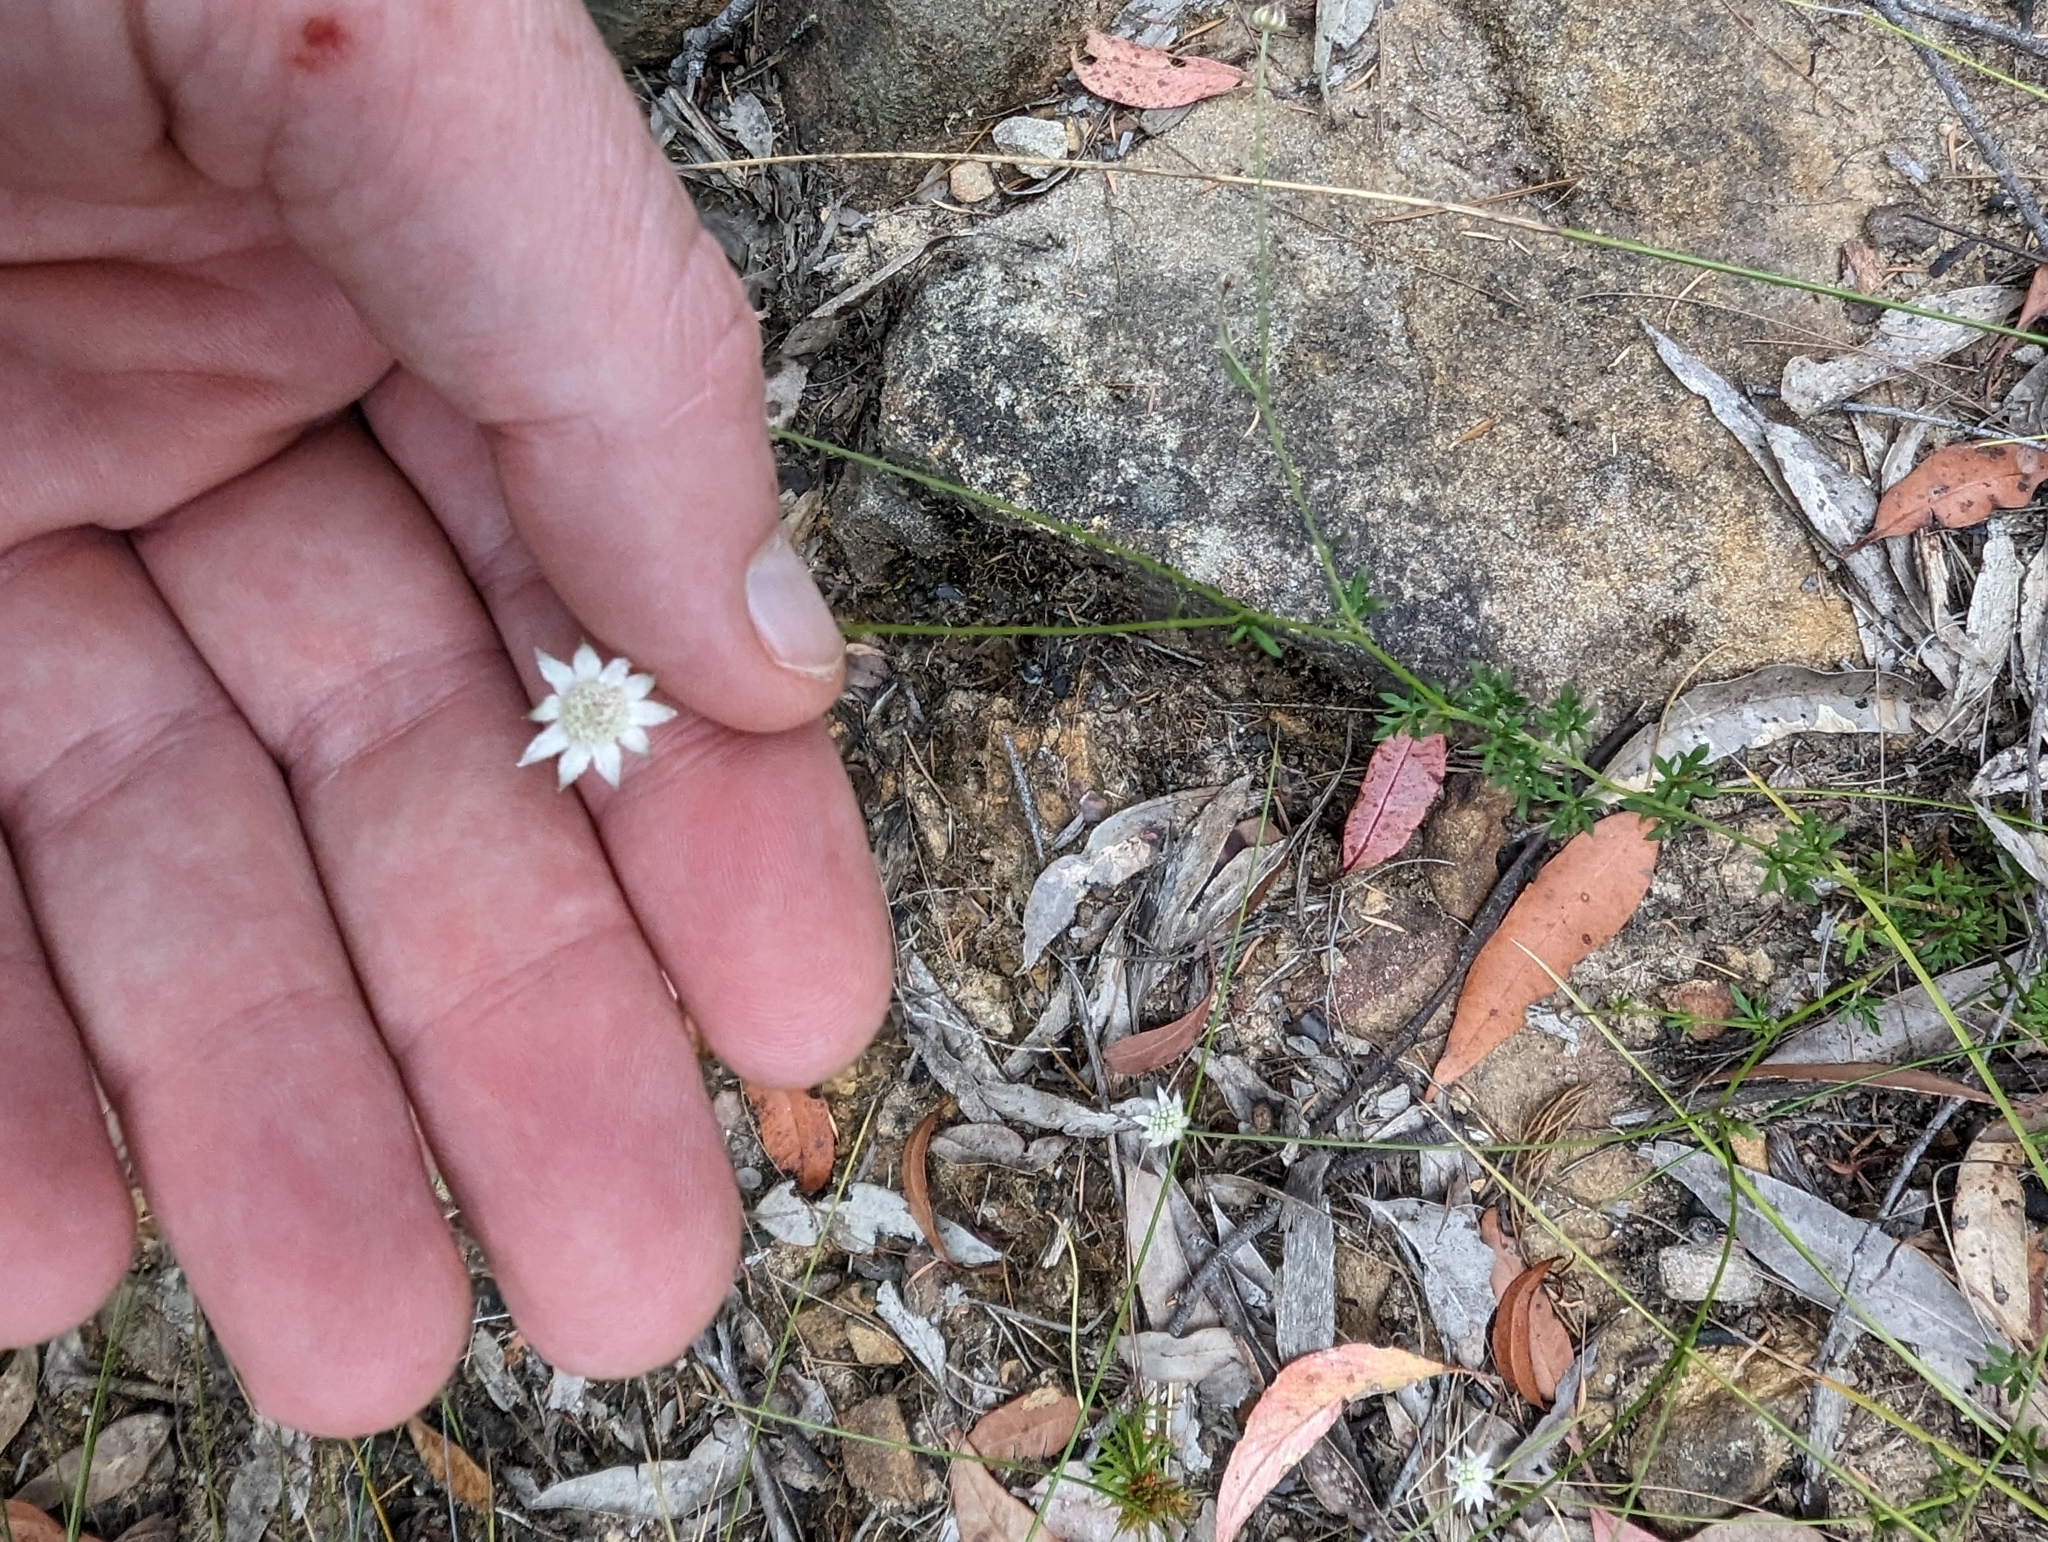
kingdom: Plantae
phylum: Tracheophyta
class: Magnoliopsida
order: Apiales
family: Apiaceae
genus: Actinotus
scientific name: Actinotus minor
